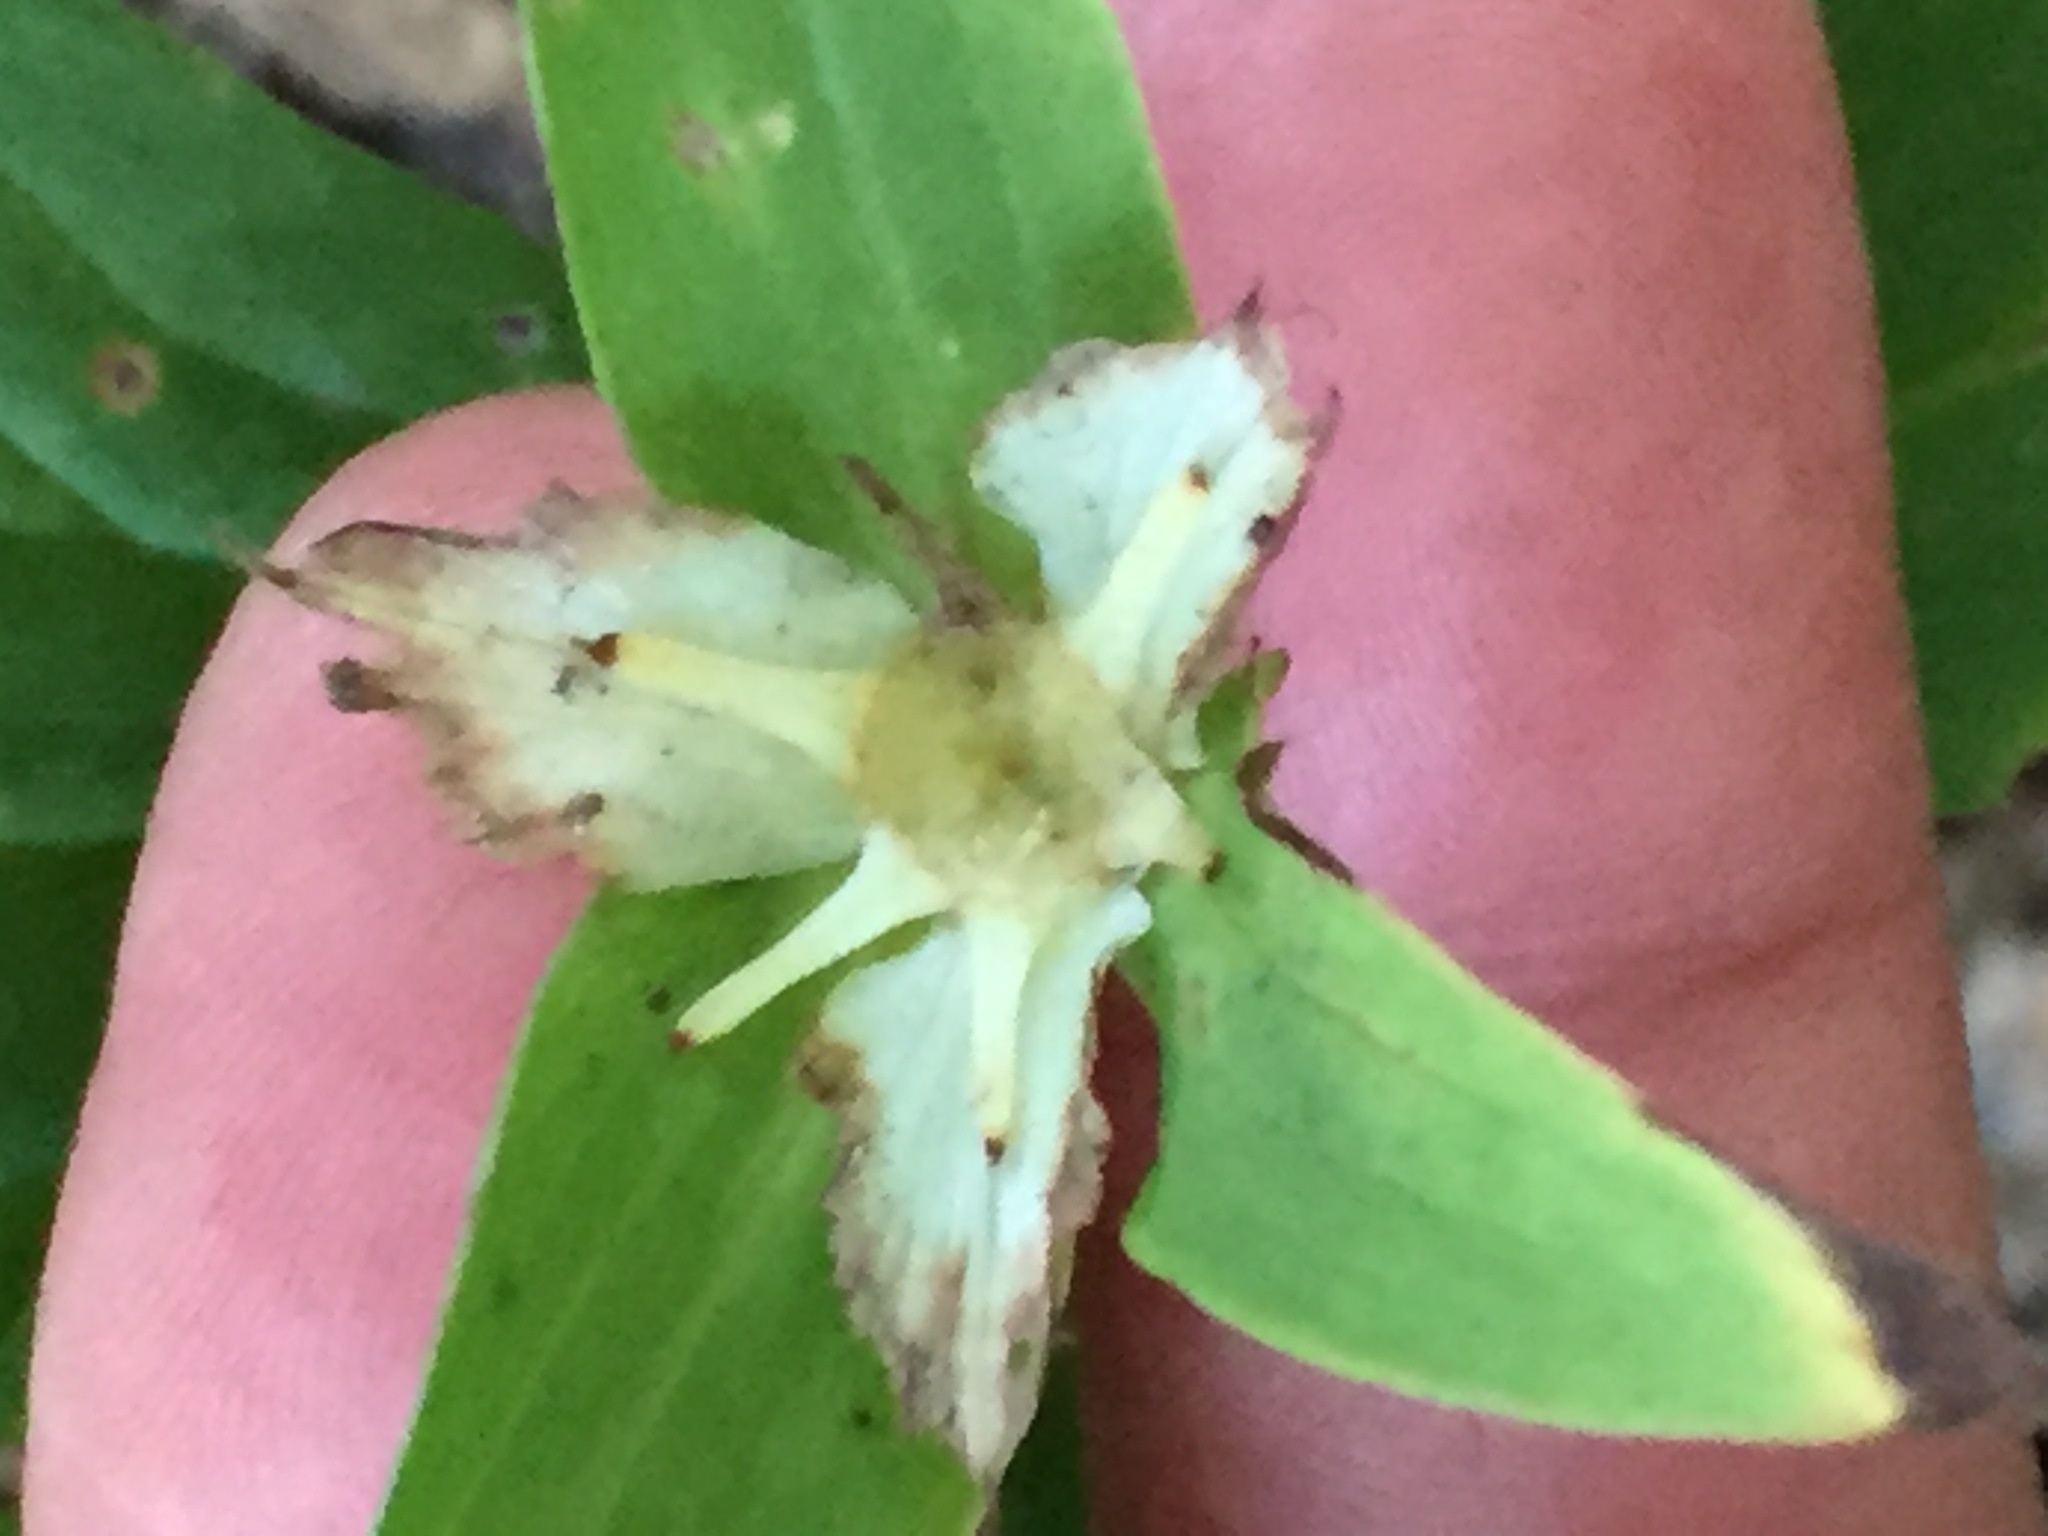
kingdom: Plantae
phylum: Tracheophyta
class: Liliopsida
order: Liliales
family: Melanthiaceae
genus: Trillium
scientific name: Trillium grandiflorum
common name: Great white trillium
